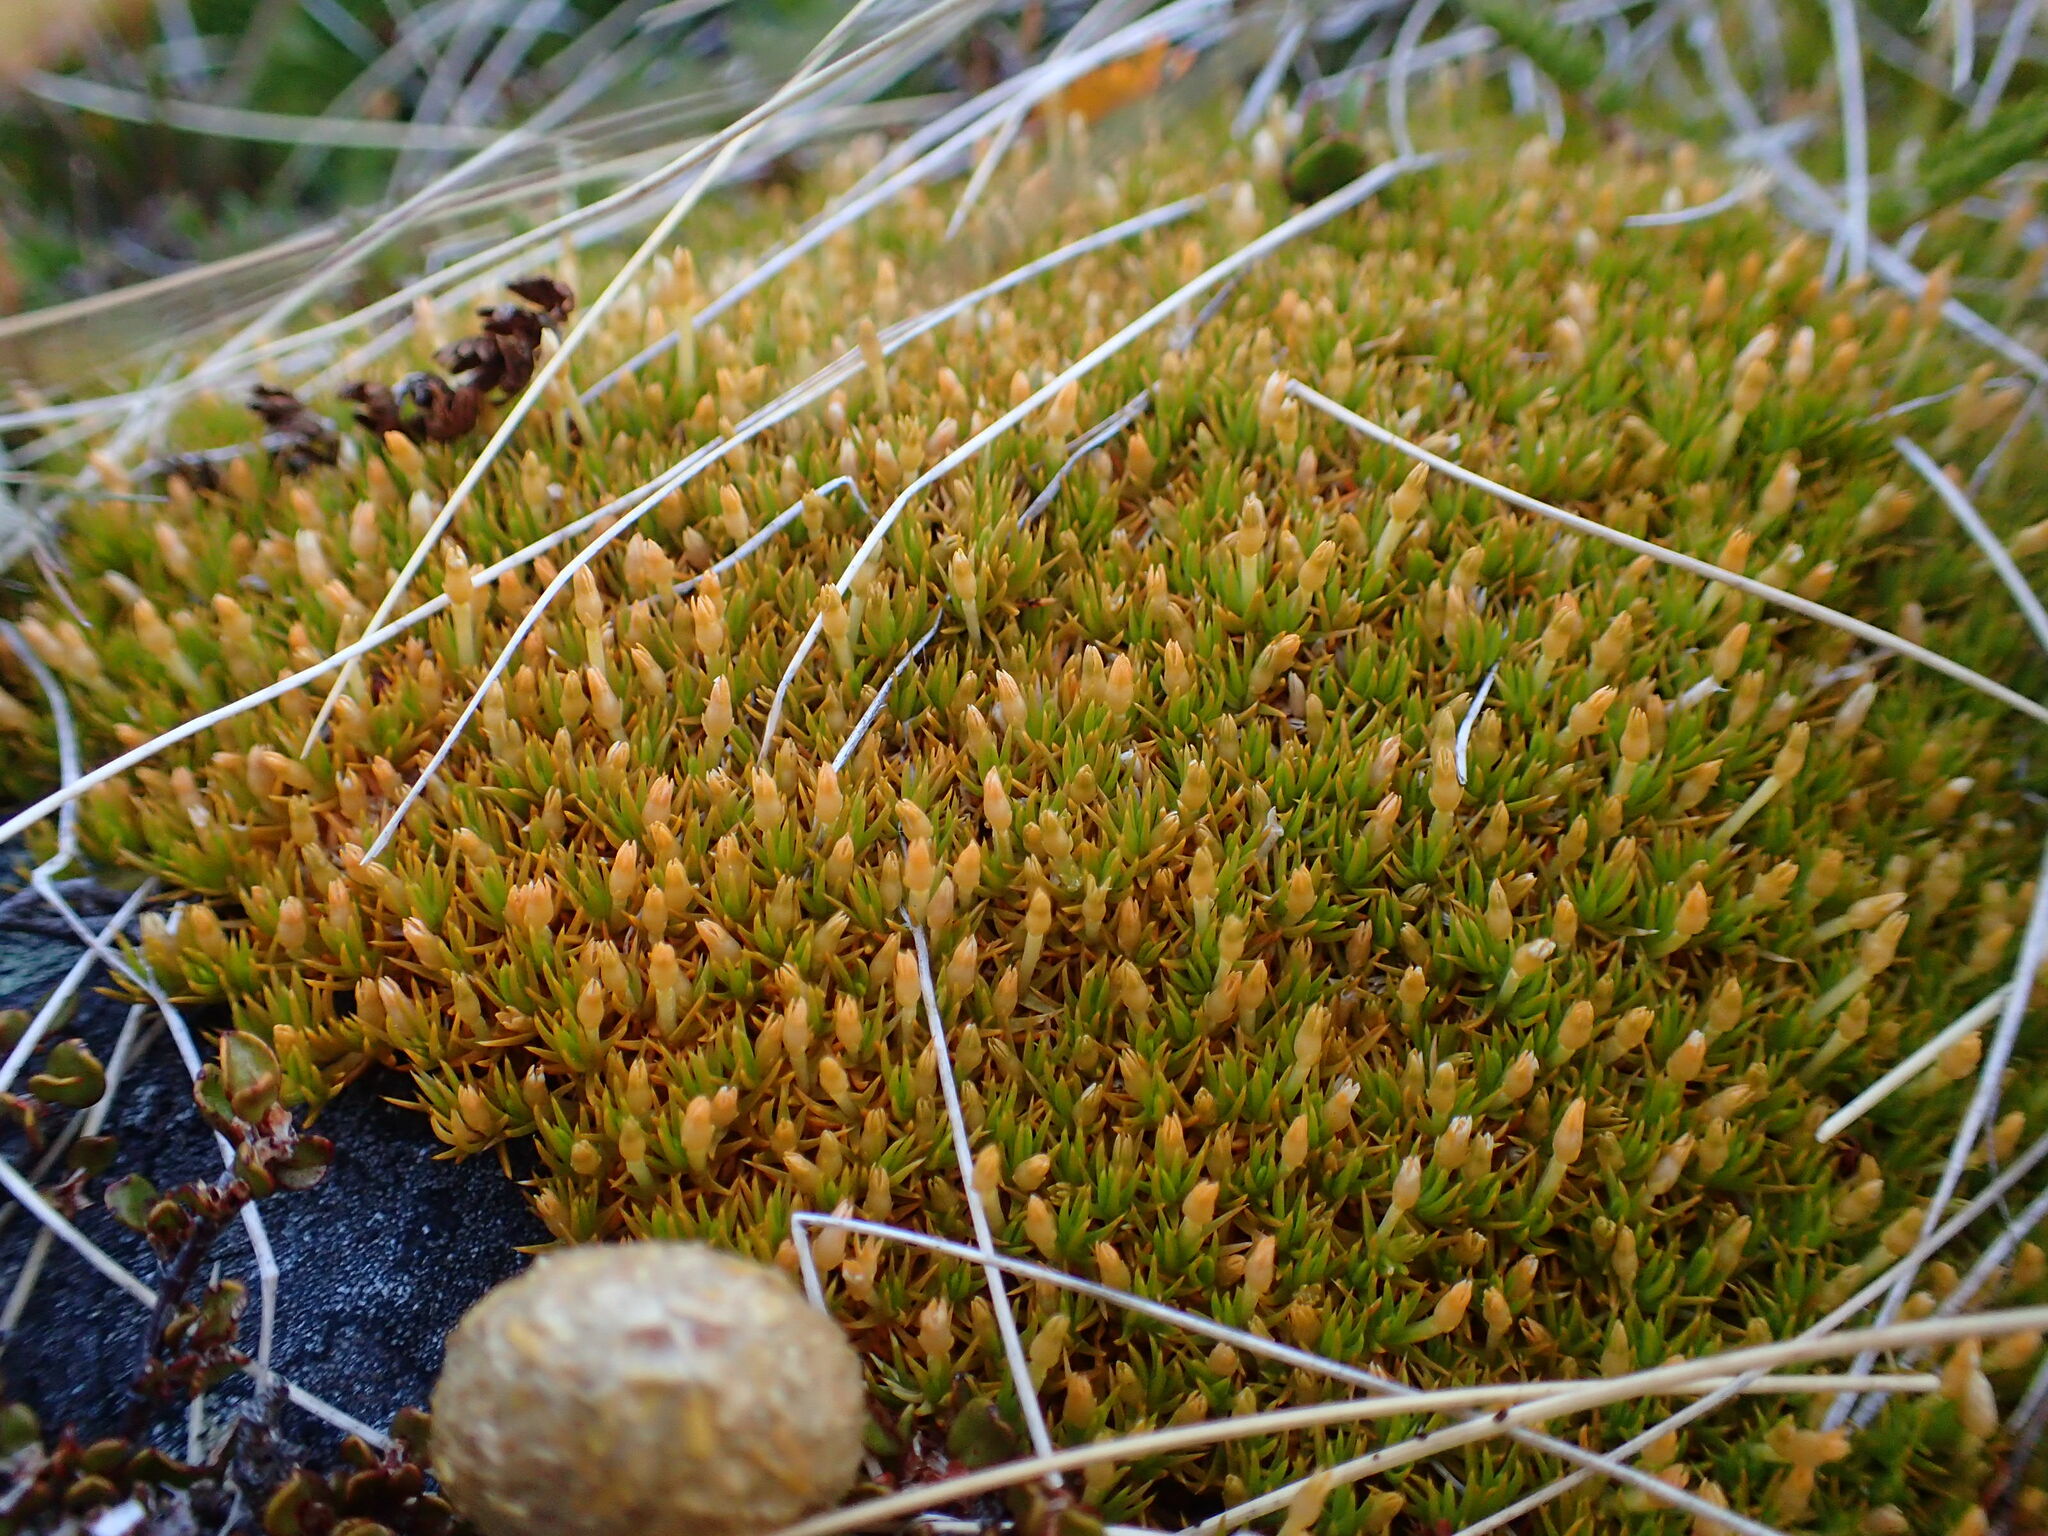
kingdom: Plantae
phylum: Tracheophyta
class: Magnoliopsida
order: Caryophyllales
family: Caryophyllaceae
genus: Scleranthus
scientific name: Scleranthus uniflorus
